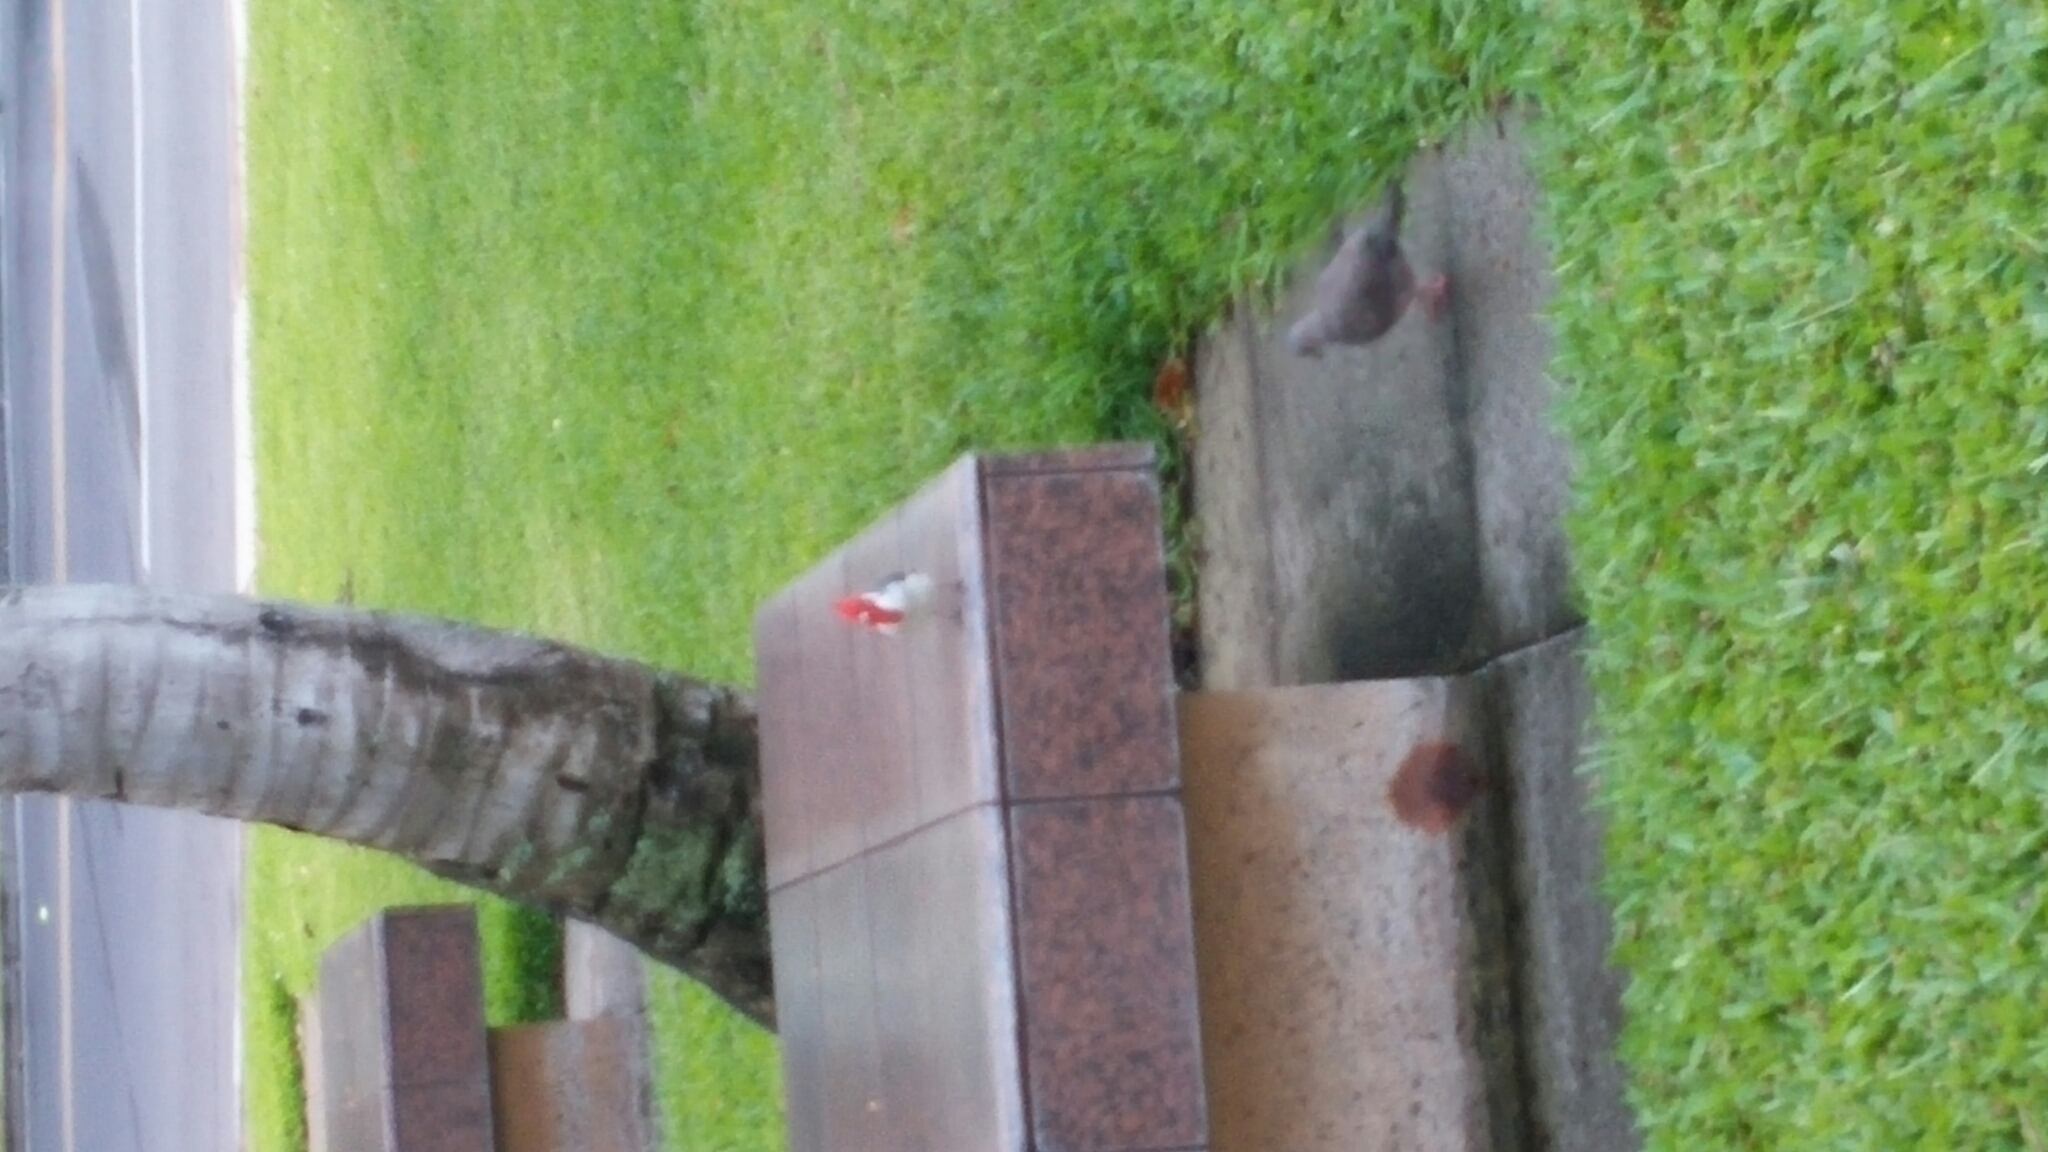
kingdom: Animalia
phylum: Chordata
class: Aves
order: Passeriformes
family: Thraupidae
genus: Paroaria
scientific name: Paroaria coronata
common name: Red-crested cardinal
